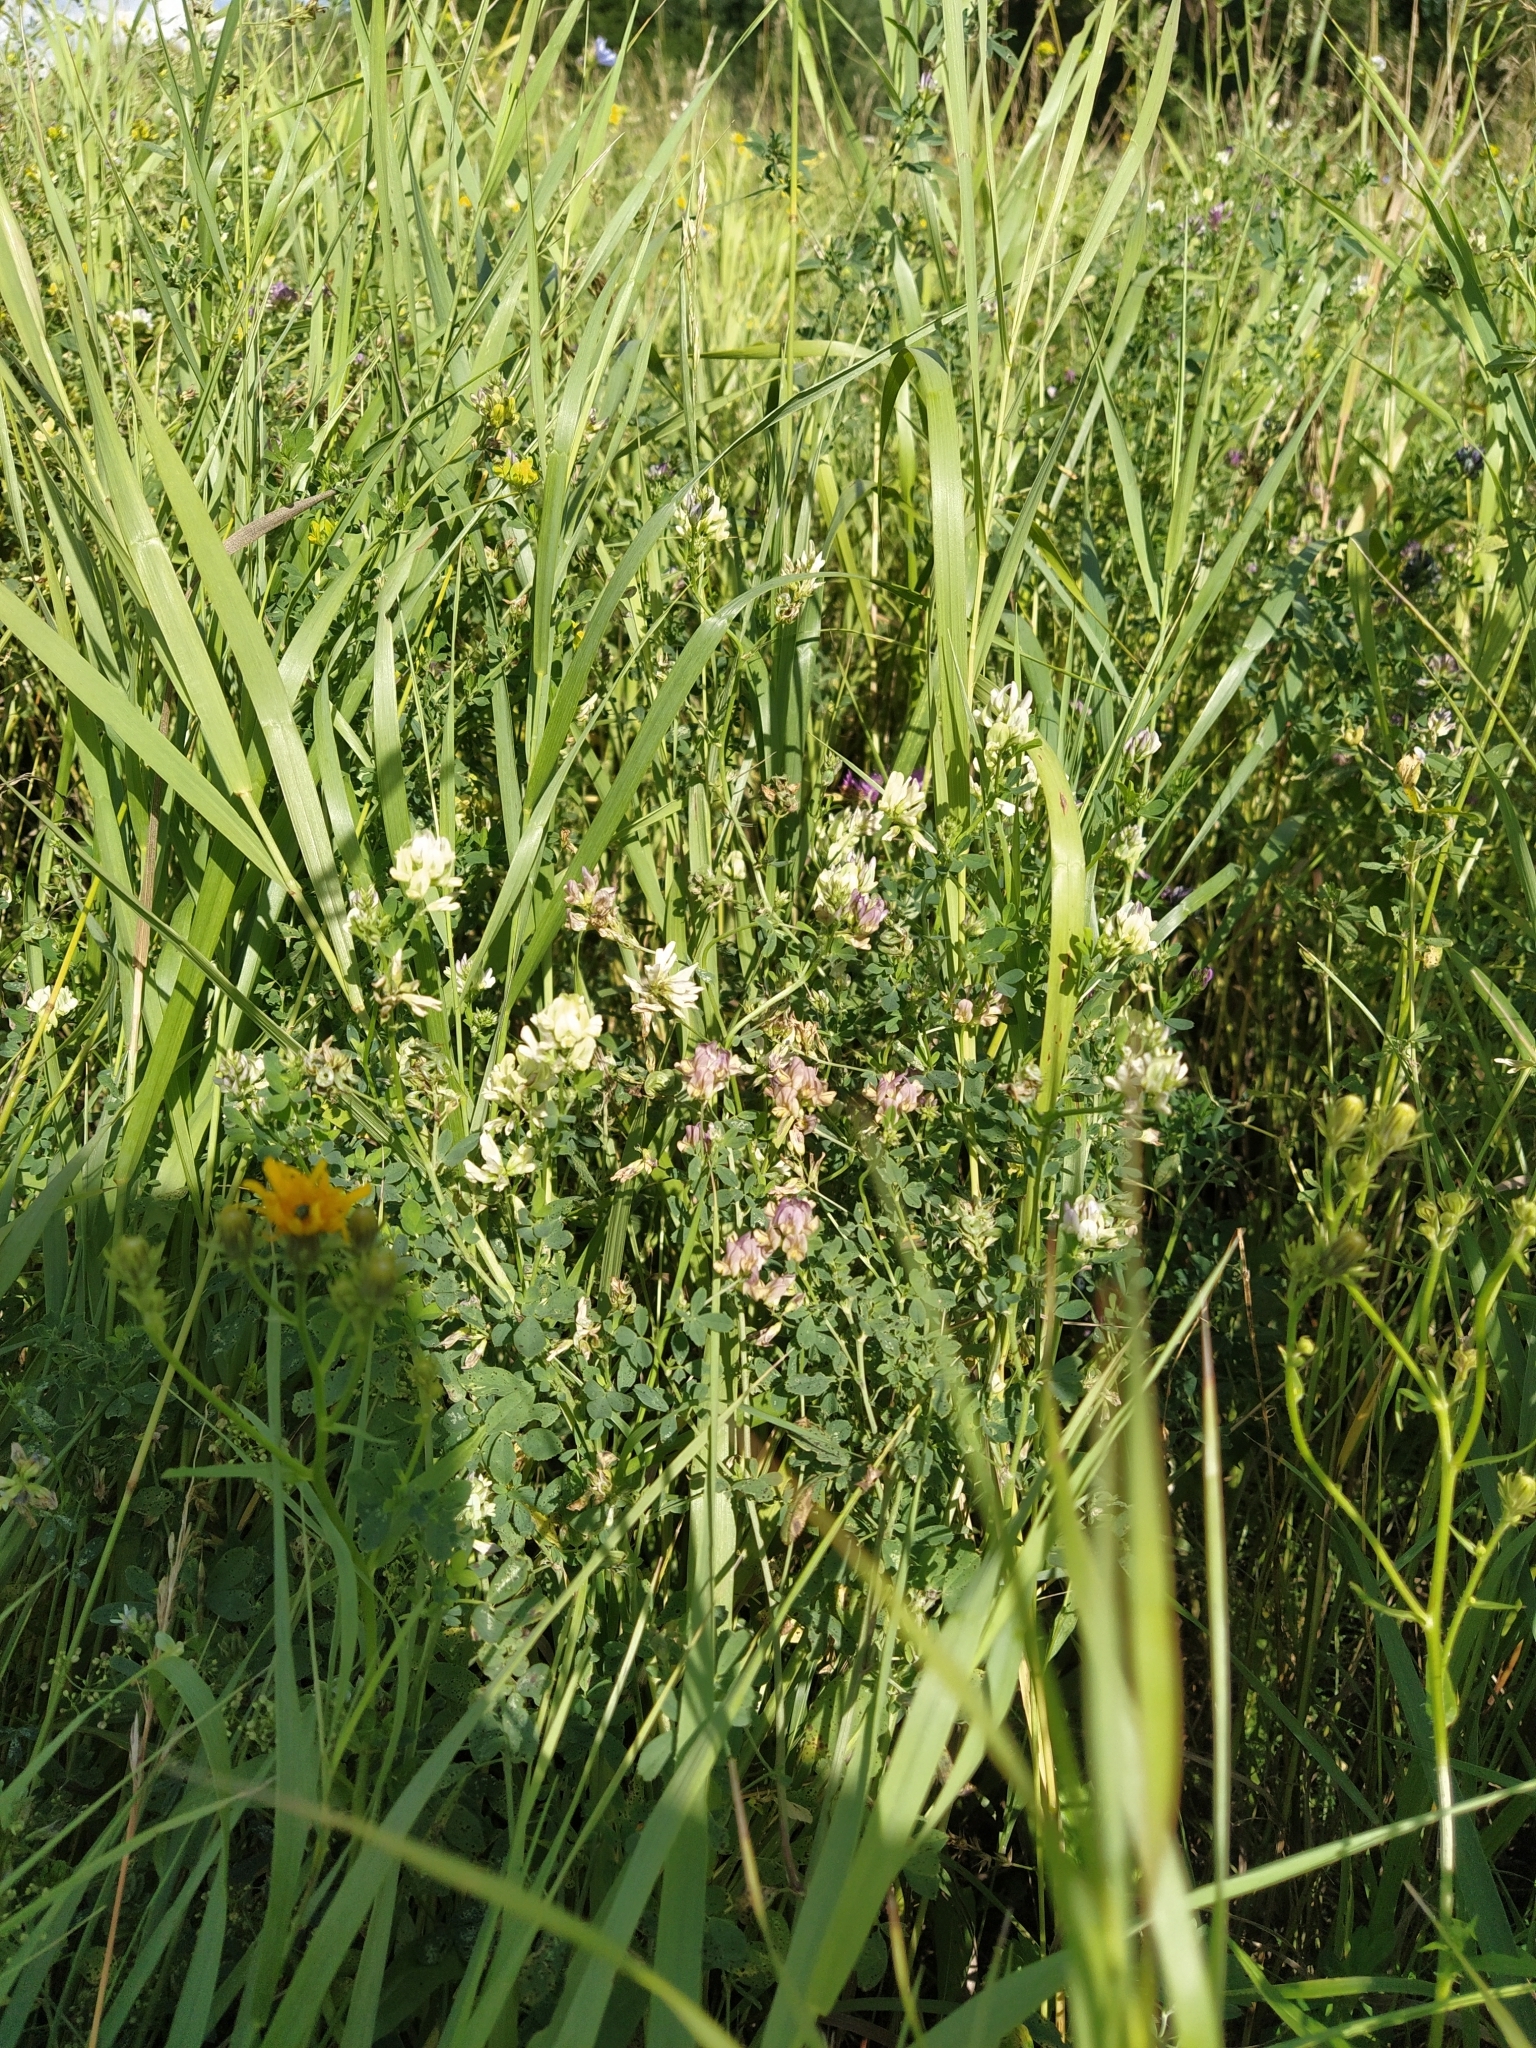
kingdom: Plantae
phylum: Tracheophyta
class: Magnoliopsida
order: Fabales
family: Fabaceae
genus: Medicago
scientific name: Medicago varia
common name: Sand lucerne
